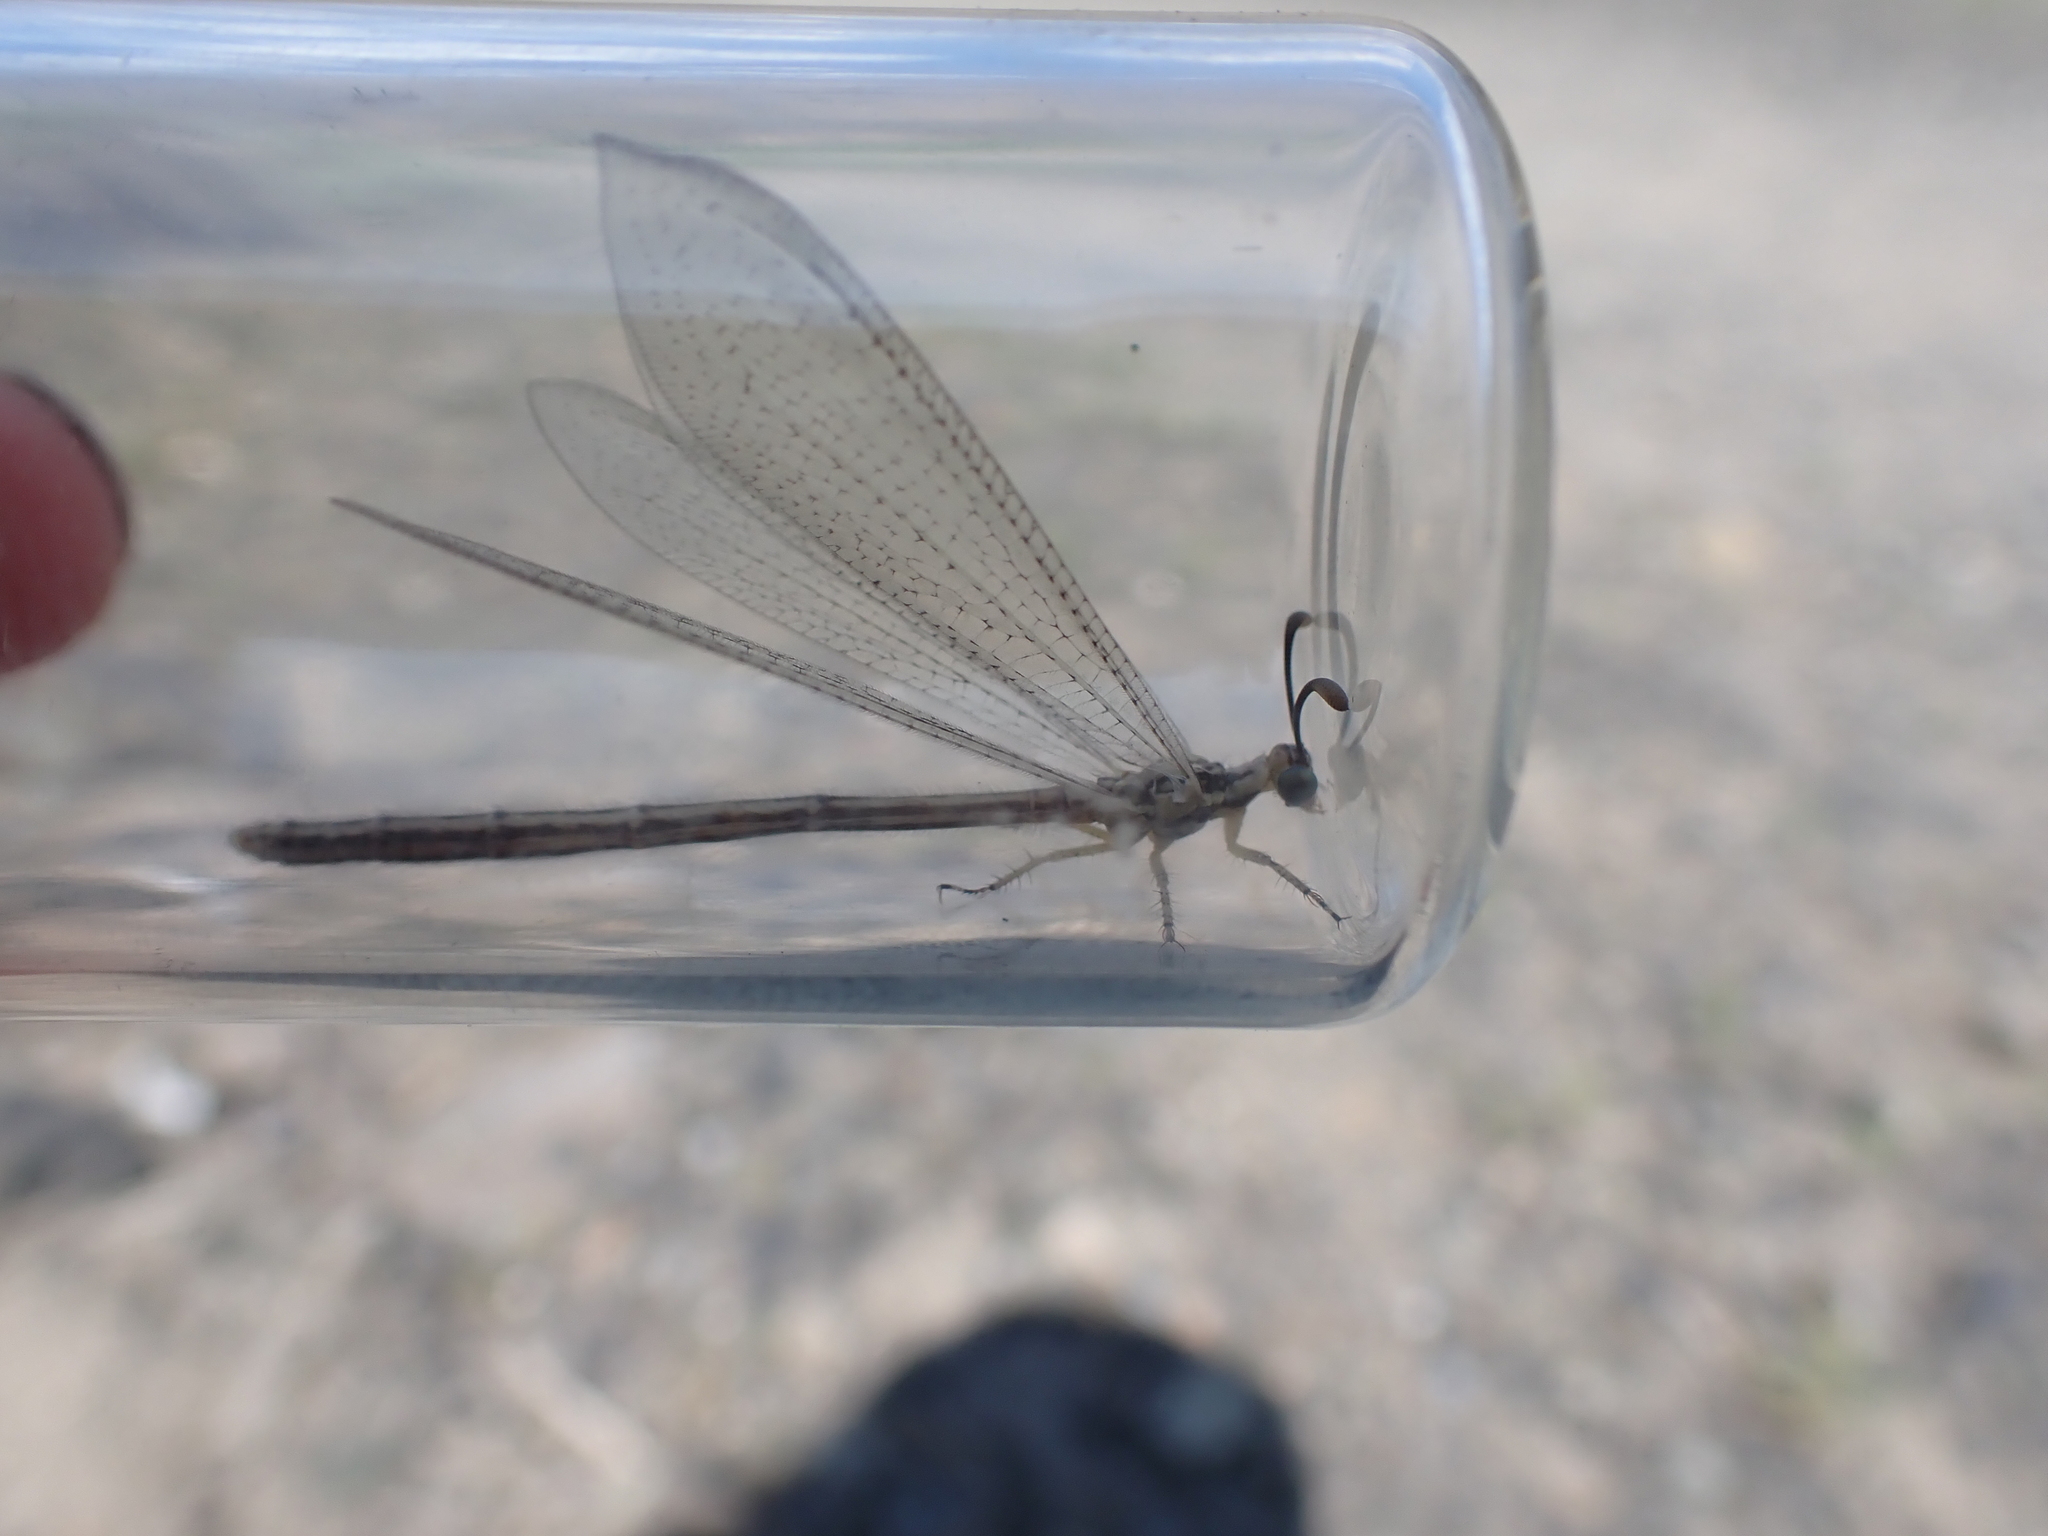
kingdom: Animalia
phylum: Arthropoda
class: Insecta
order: Neuroptera
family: Myrmeleontidae
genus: Brachynemurus
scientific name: Brachynemurus abdominalis
